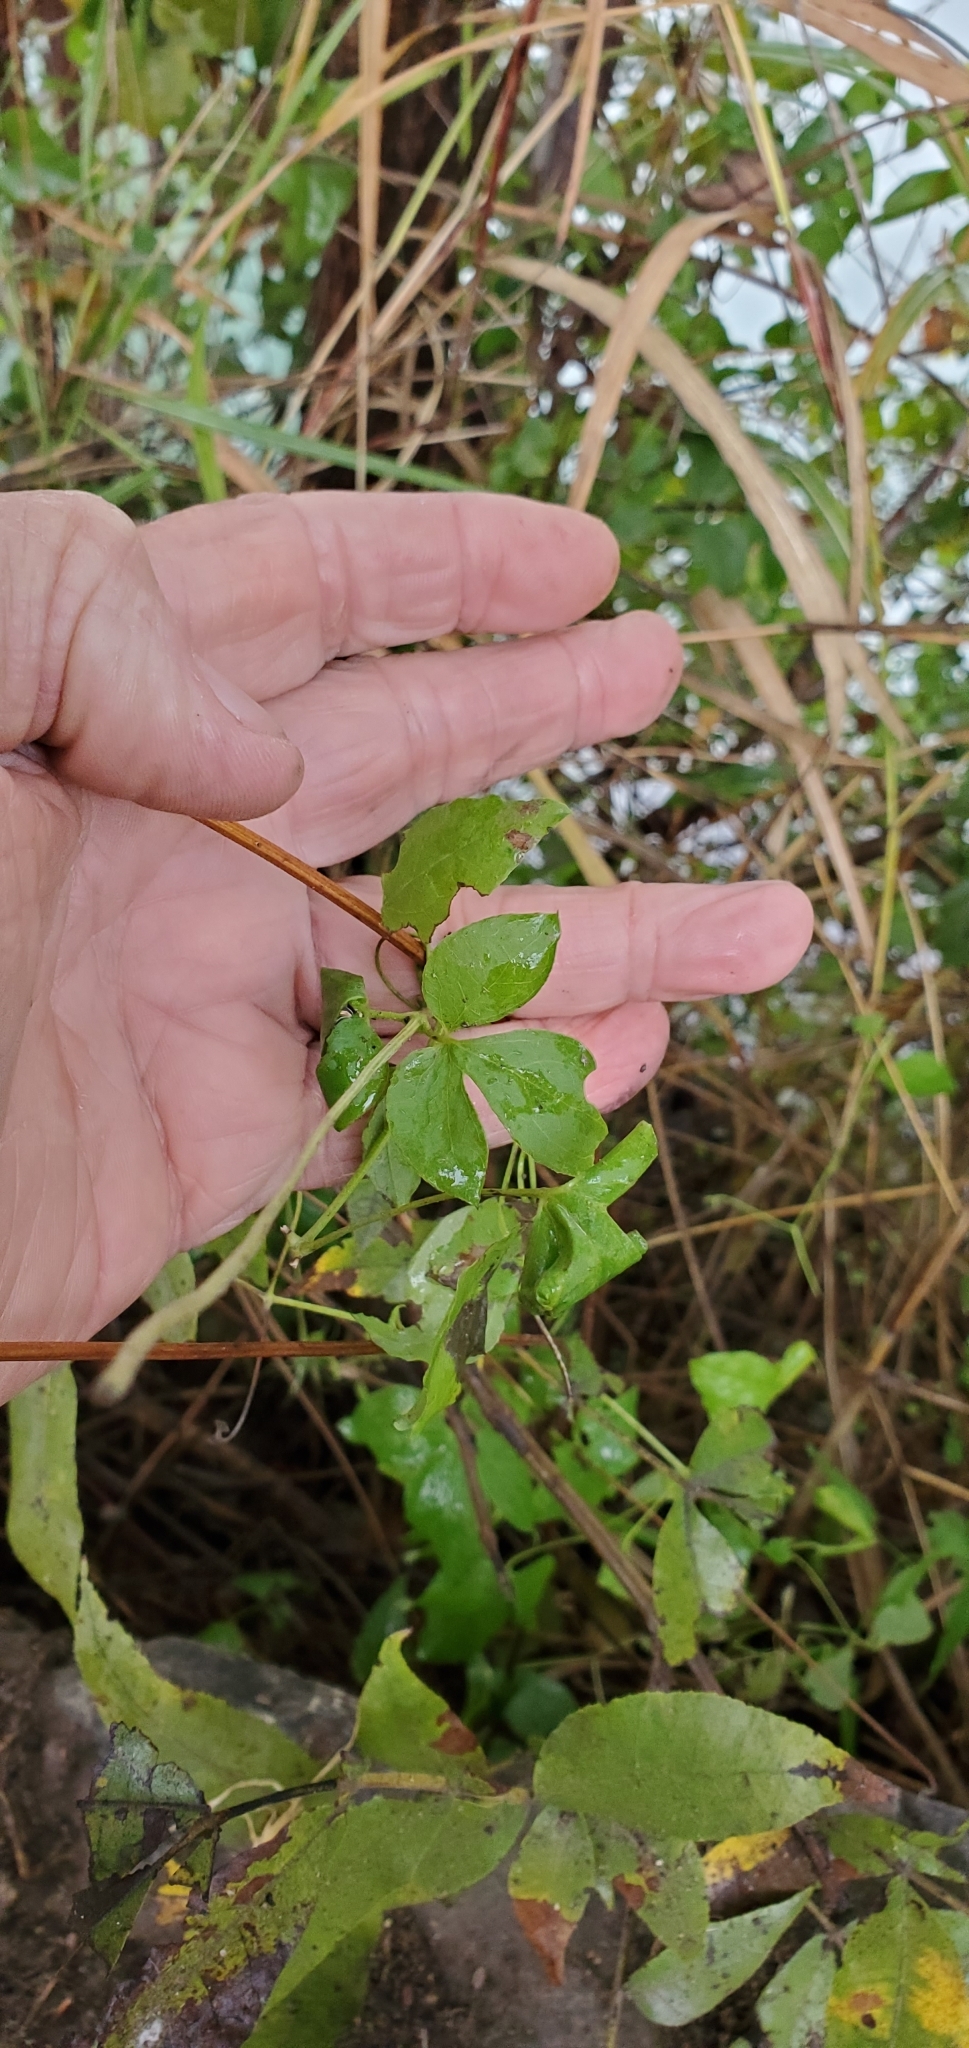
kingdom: Plantae
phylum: Tracheophyta
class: Magnoliopsida
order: Ranunculales
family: Ranunculaceae
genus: Clematis
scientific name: Clematis pitcheri
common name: Bellflower clematis
